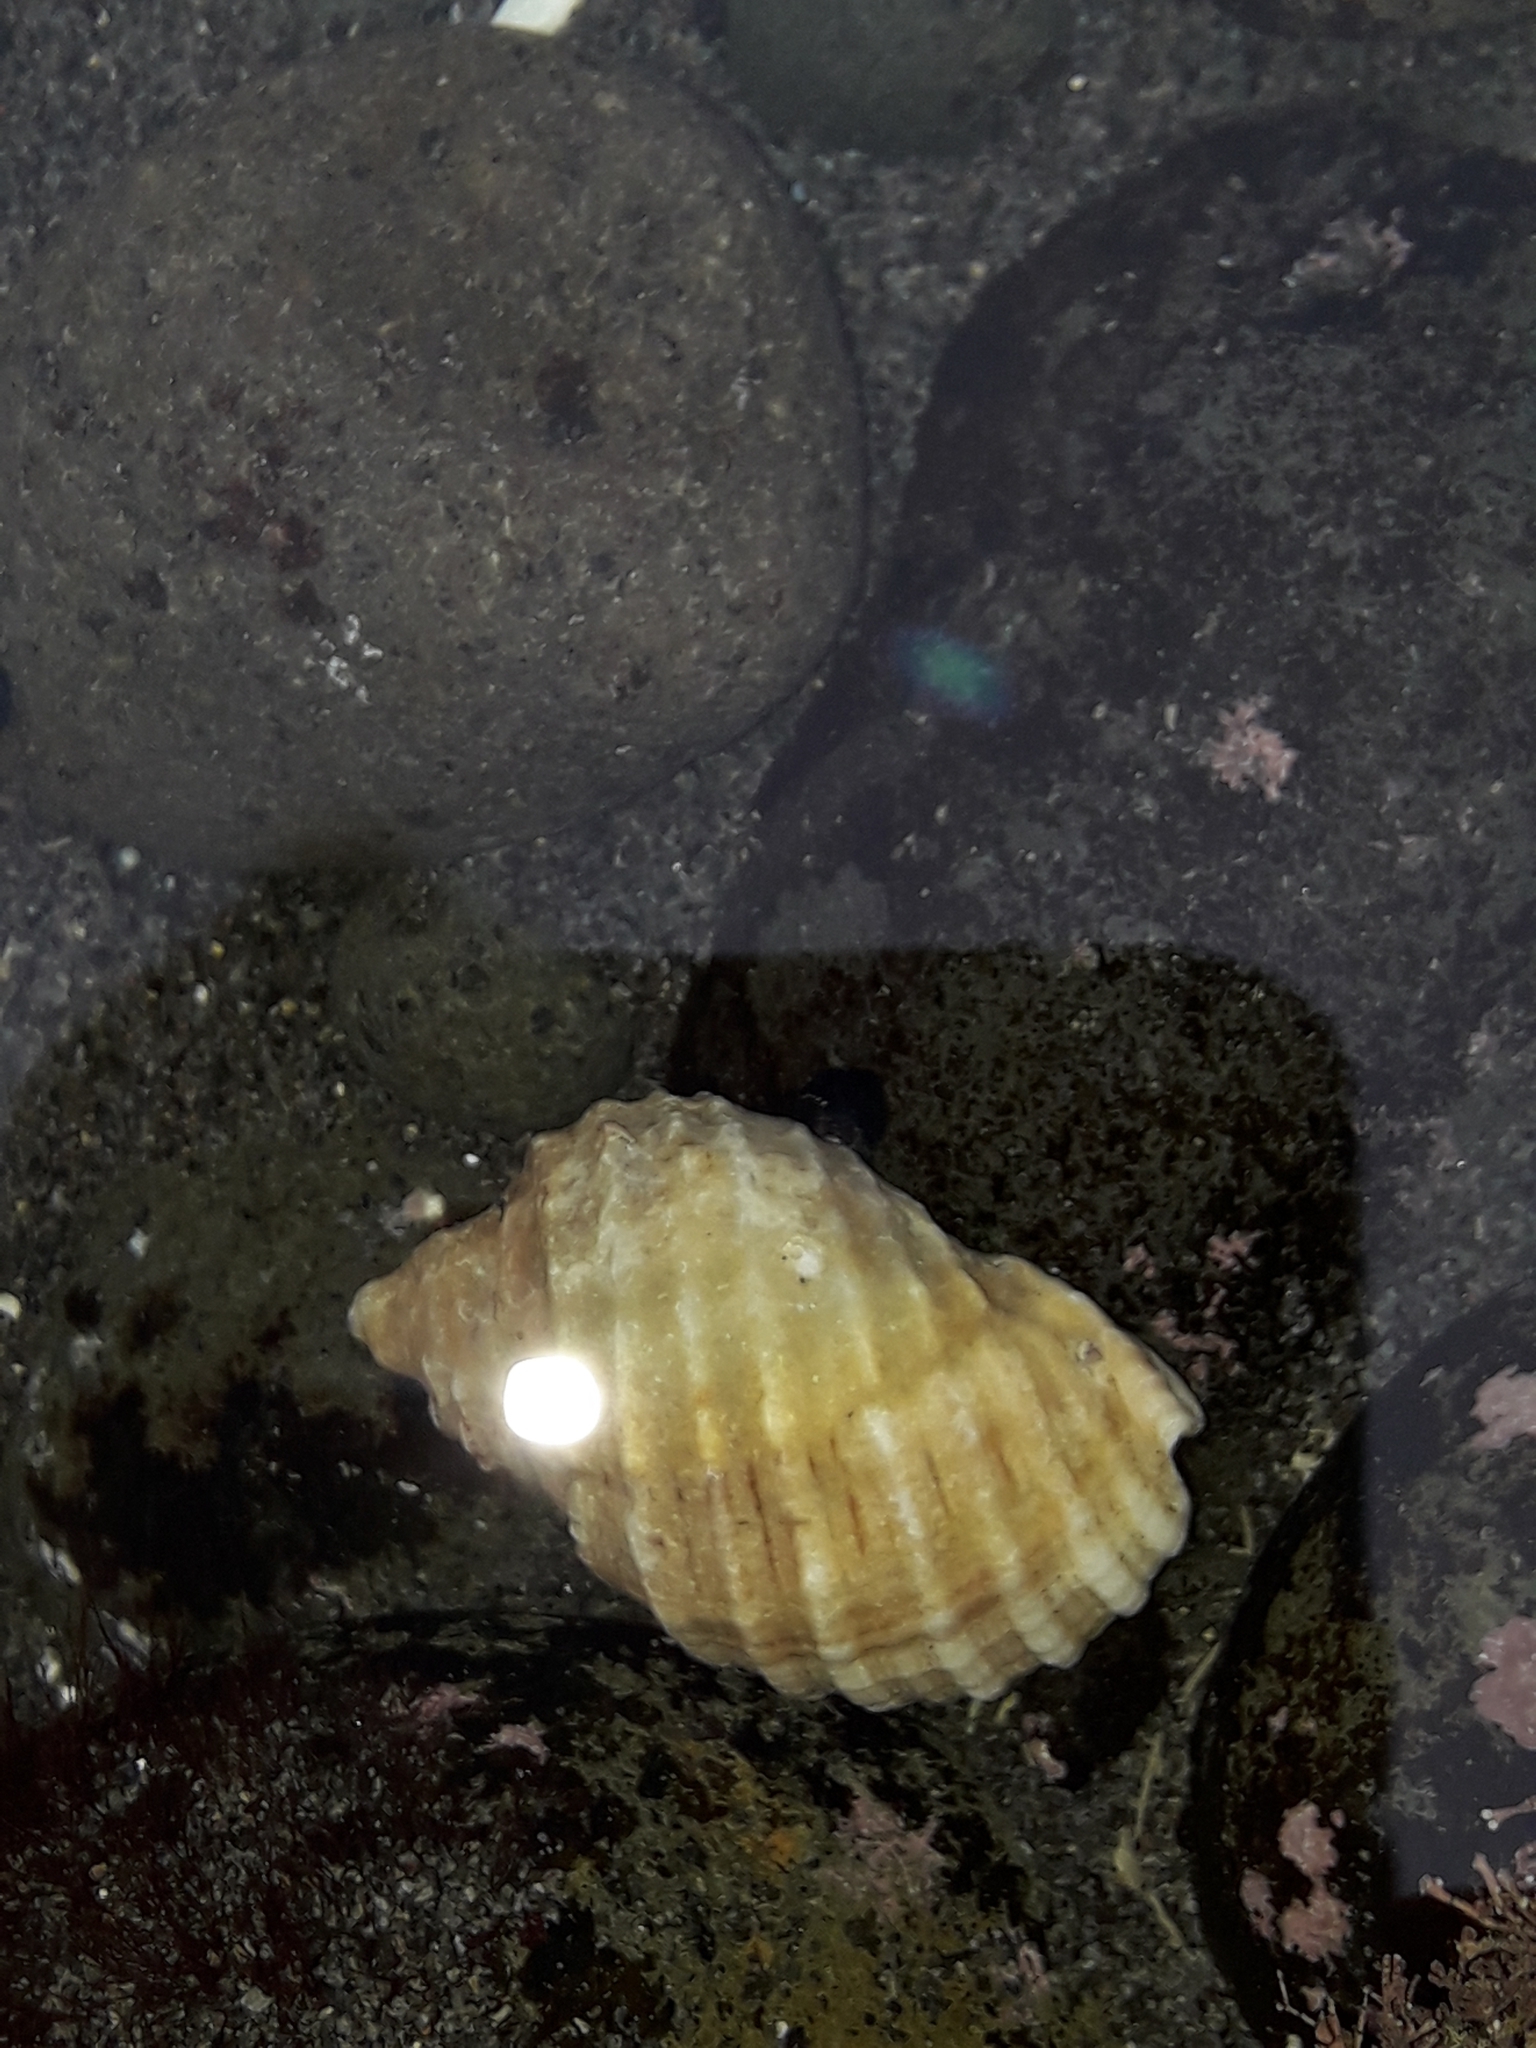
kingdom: Animalia
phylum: Mollusca
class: Gastropoda
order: Neogastropoda
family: Muricidae
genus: Dicathais
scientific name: Dicathais orbita
